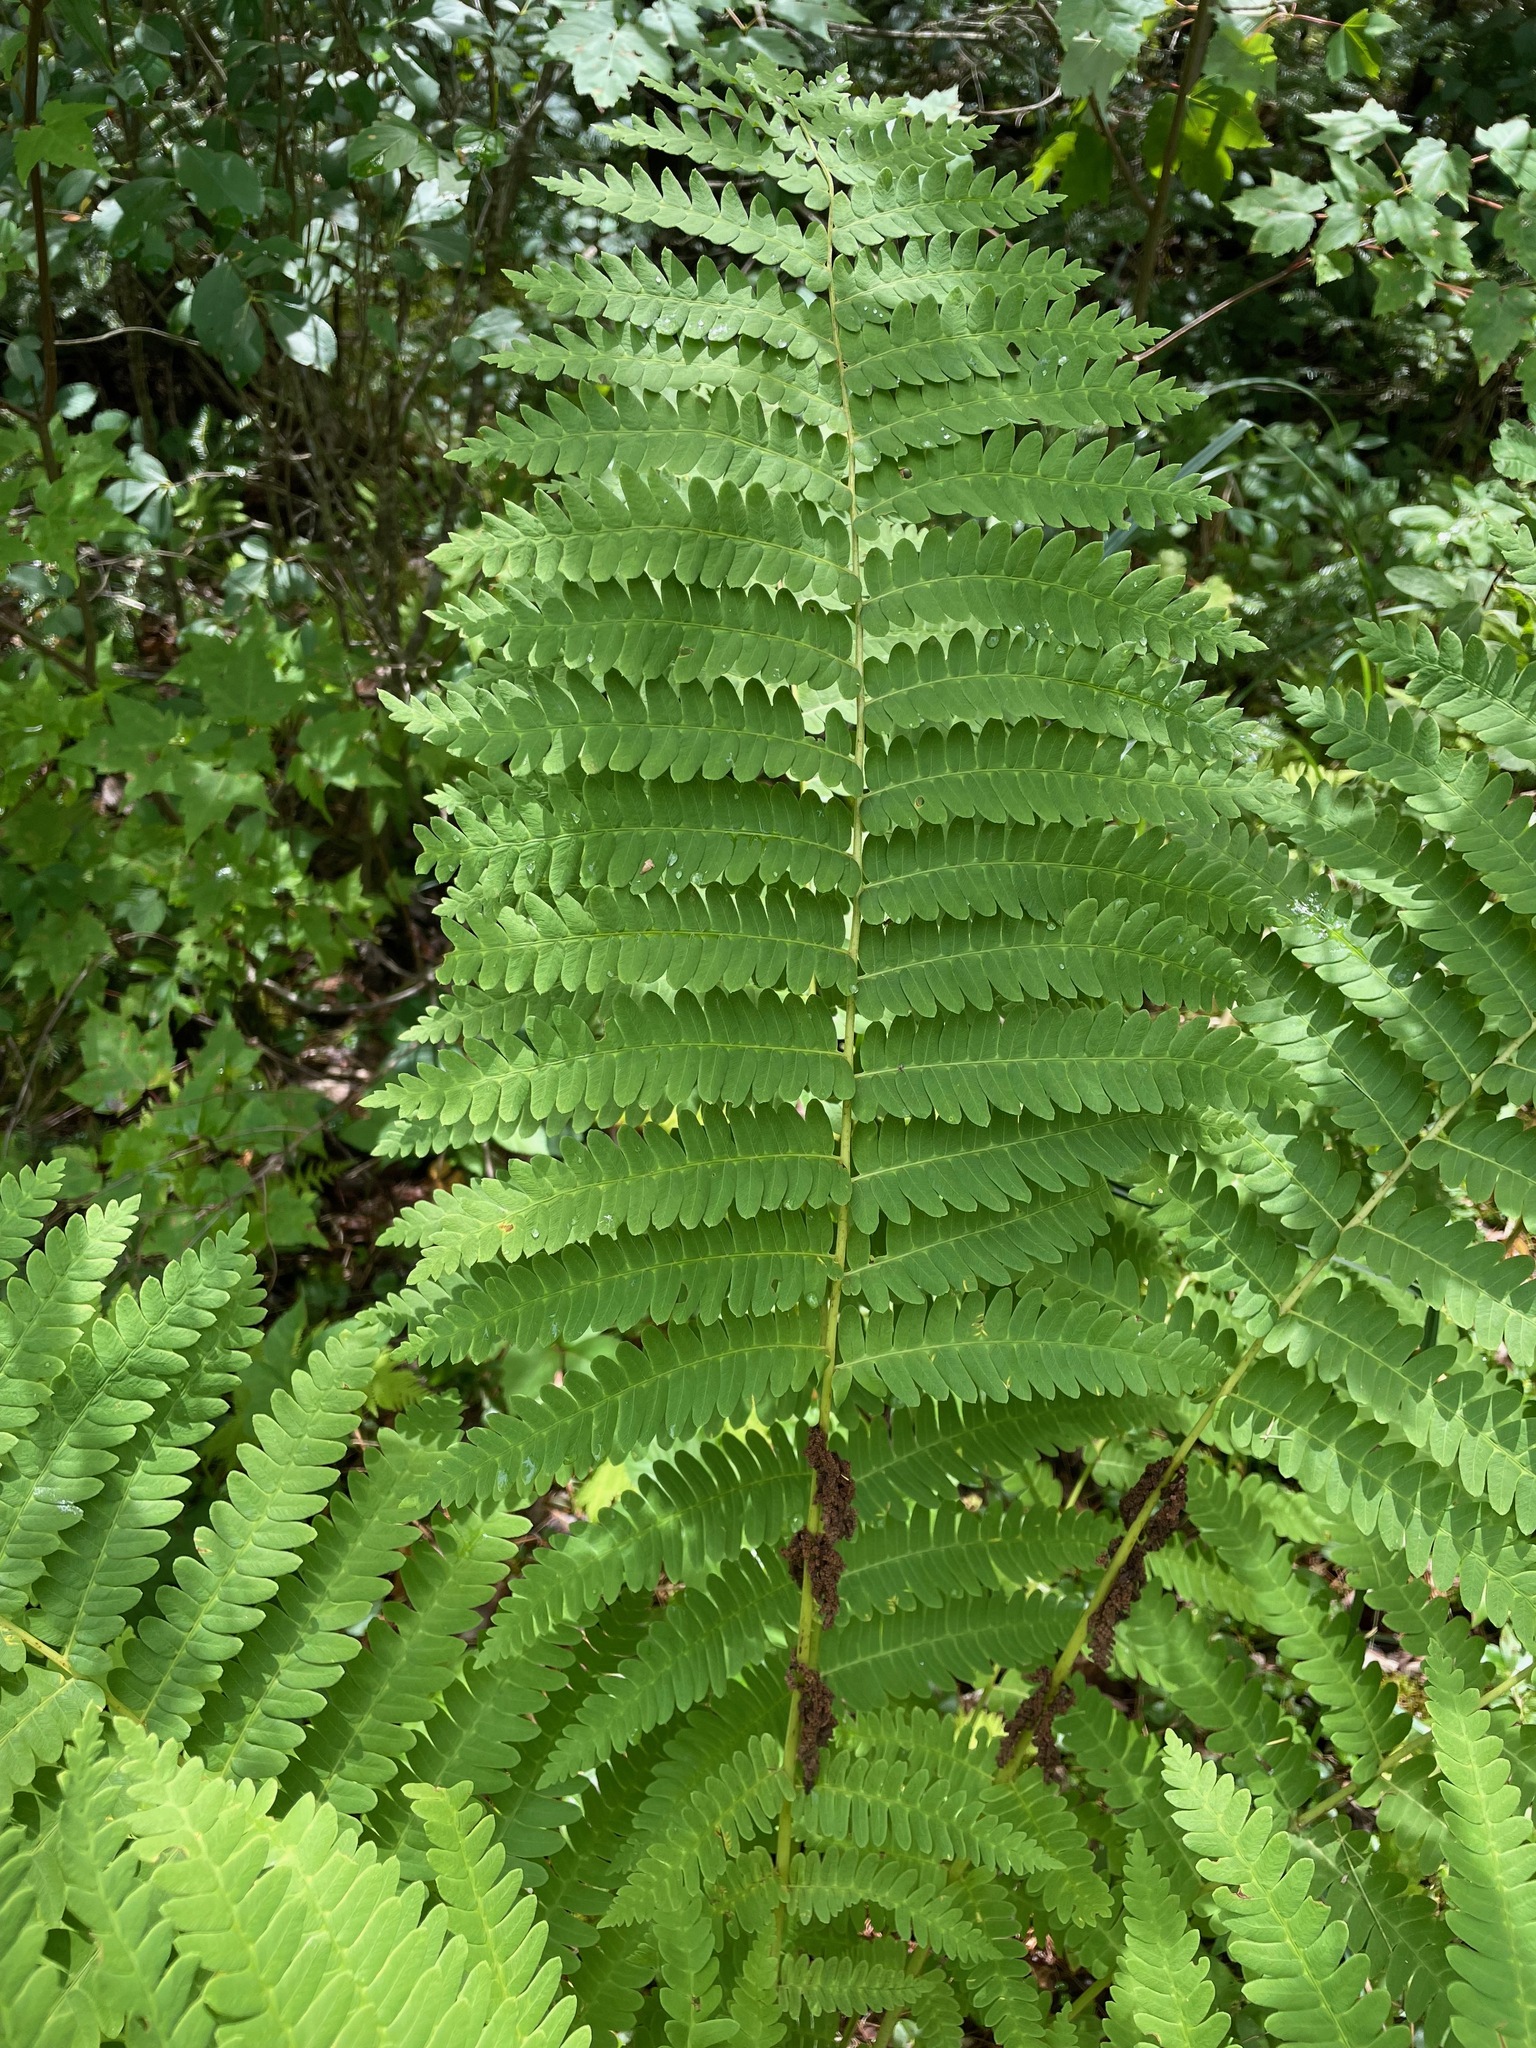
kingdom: Plantae
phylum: Tracheophyta
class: Polypodiopsida
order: Osmundales
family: Osmundaceae
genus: Claytosmunda
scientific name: Claytosmunda claytoniana
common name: Clayton's fern
